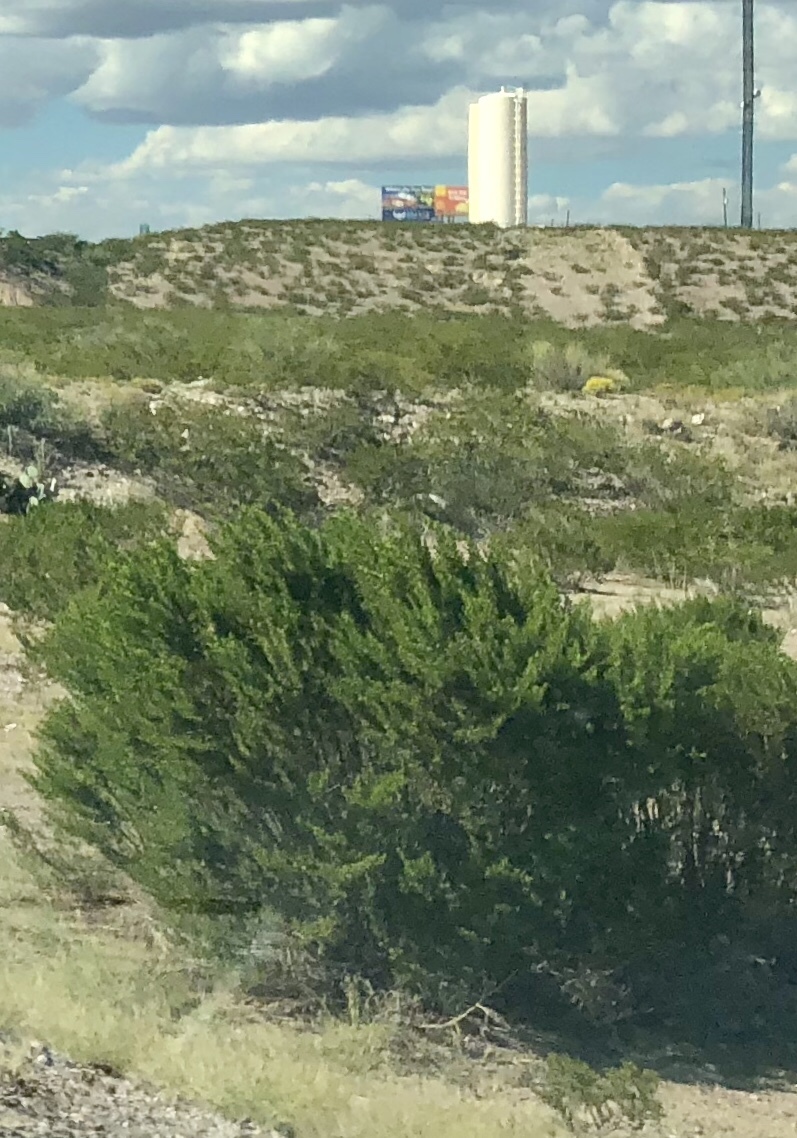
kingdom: Plantae
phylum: Tracheophyta
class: Magnoliopsida
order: Zygophyllales
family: Zygophyllaceae
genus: Larrea
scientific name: Larrea tridentata
